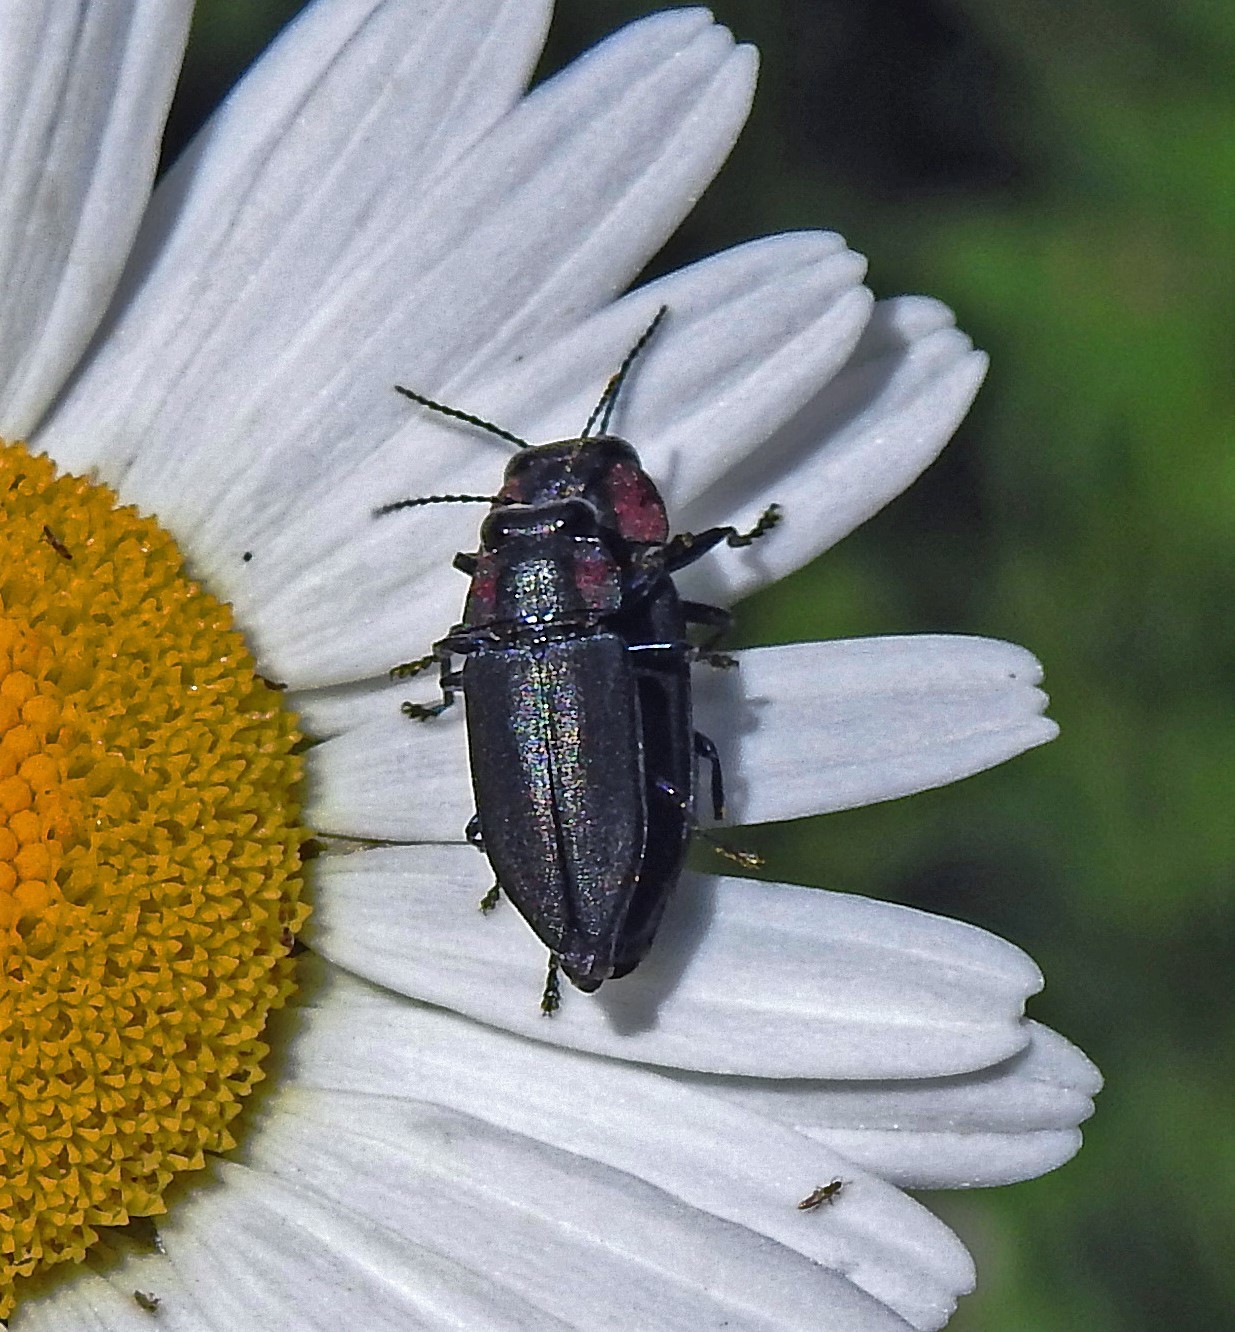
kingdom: Animalia
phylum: Arthropoda
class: Insecta
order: Coleoptera
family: Buprestidae
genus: Romanophora
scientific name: Romanophora verecunda
